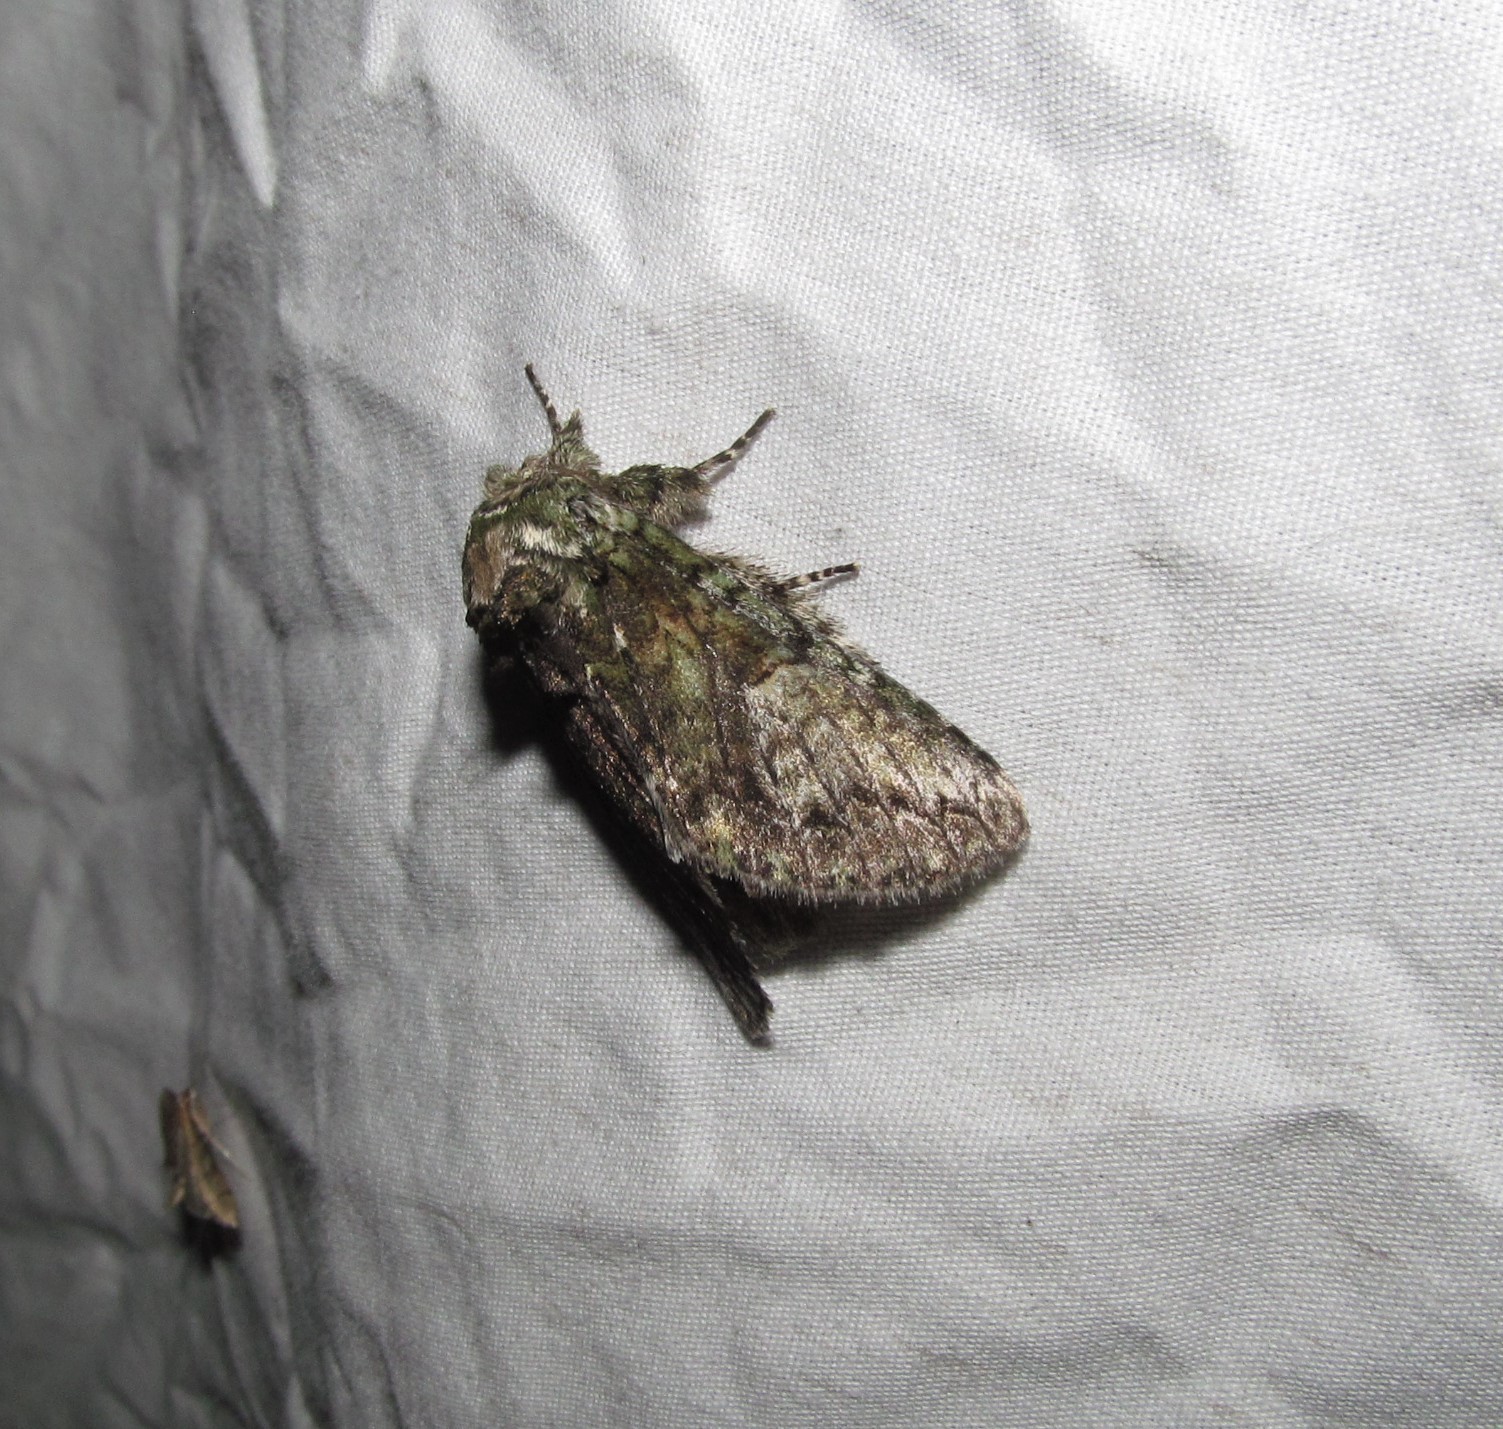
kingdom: Animalia
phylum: Arthropoda
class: Insecta
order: Lepidoptera
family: Notodontidae
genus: Heterocampa
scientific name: Heterocampa
